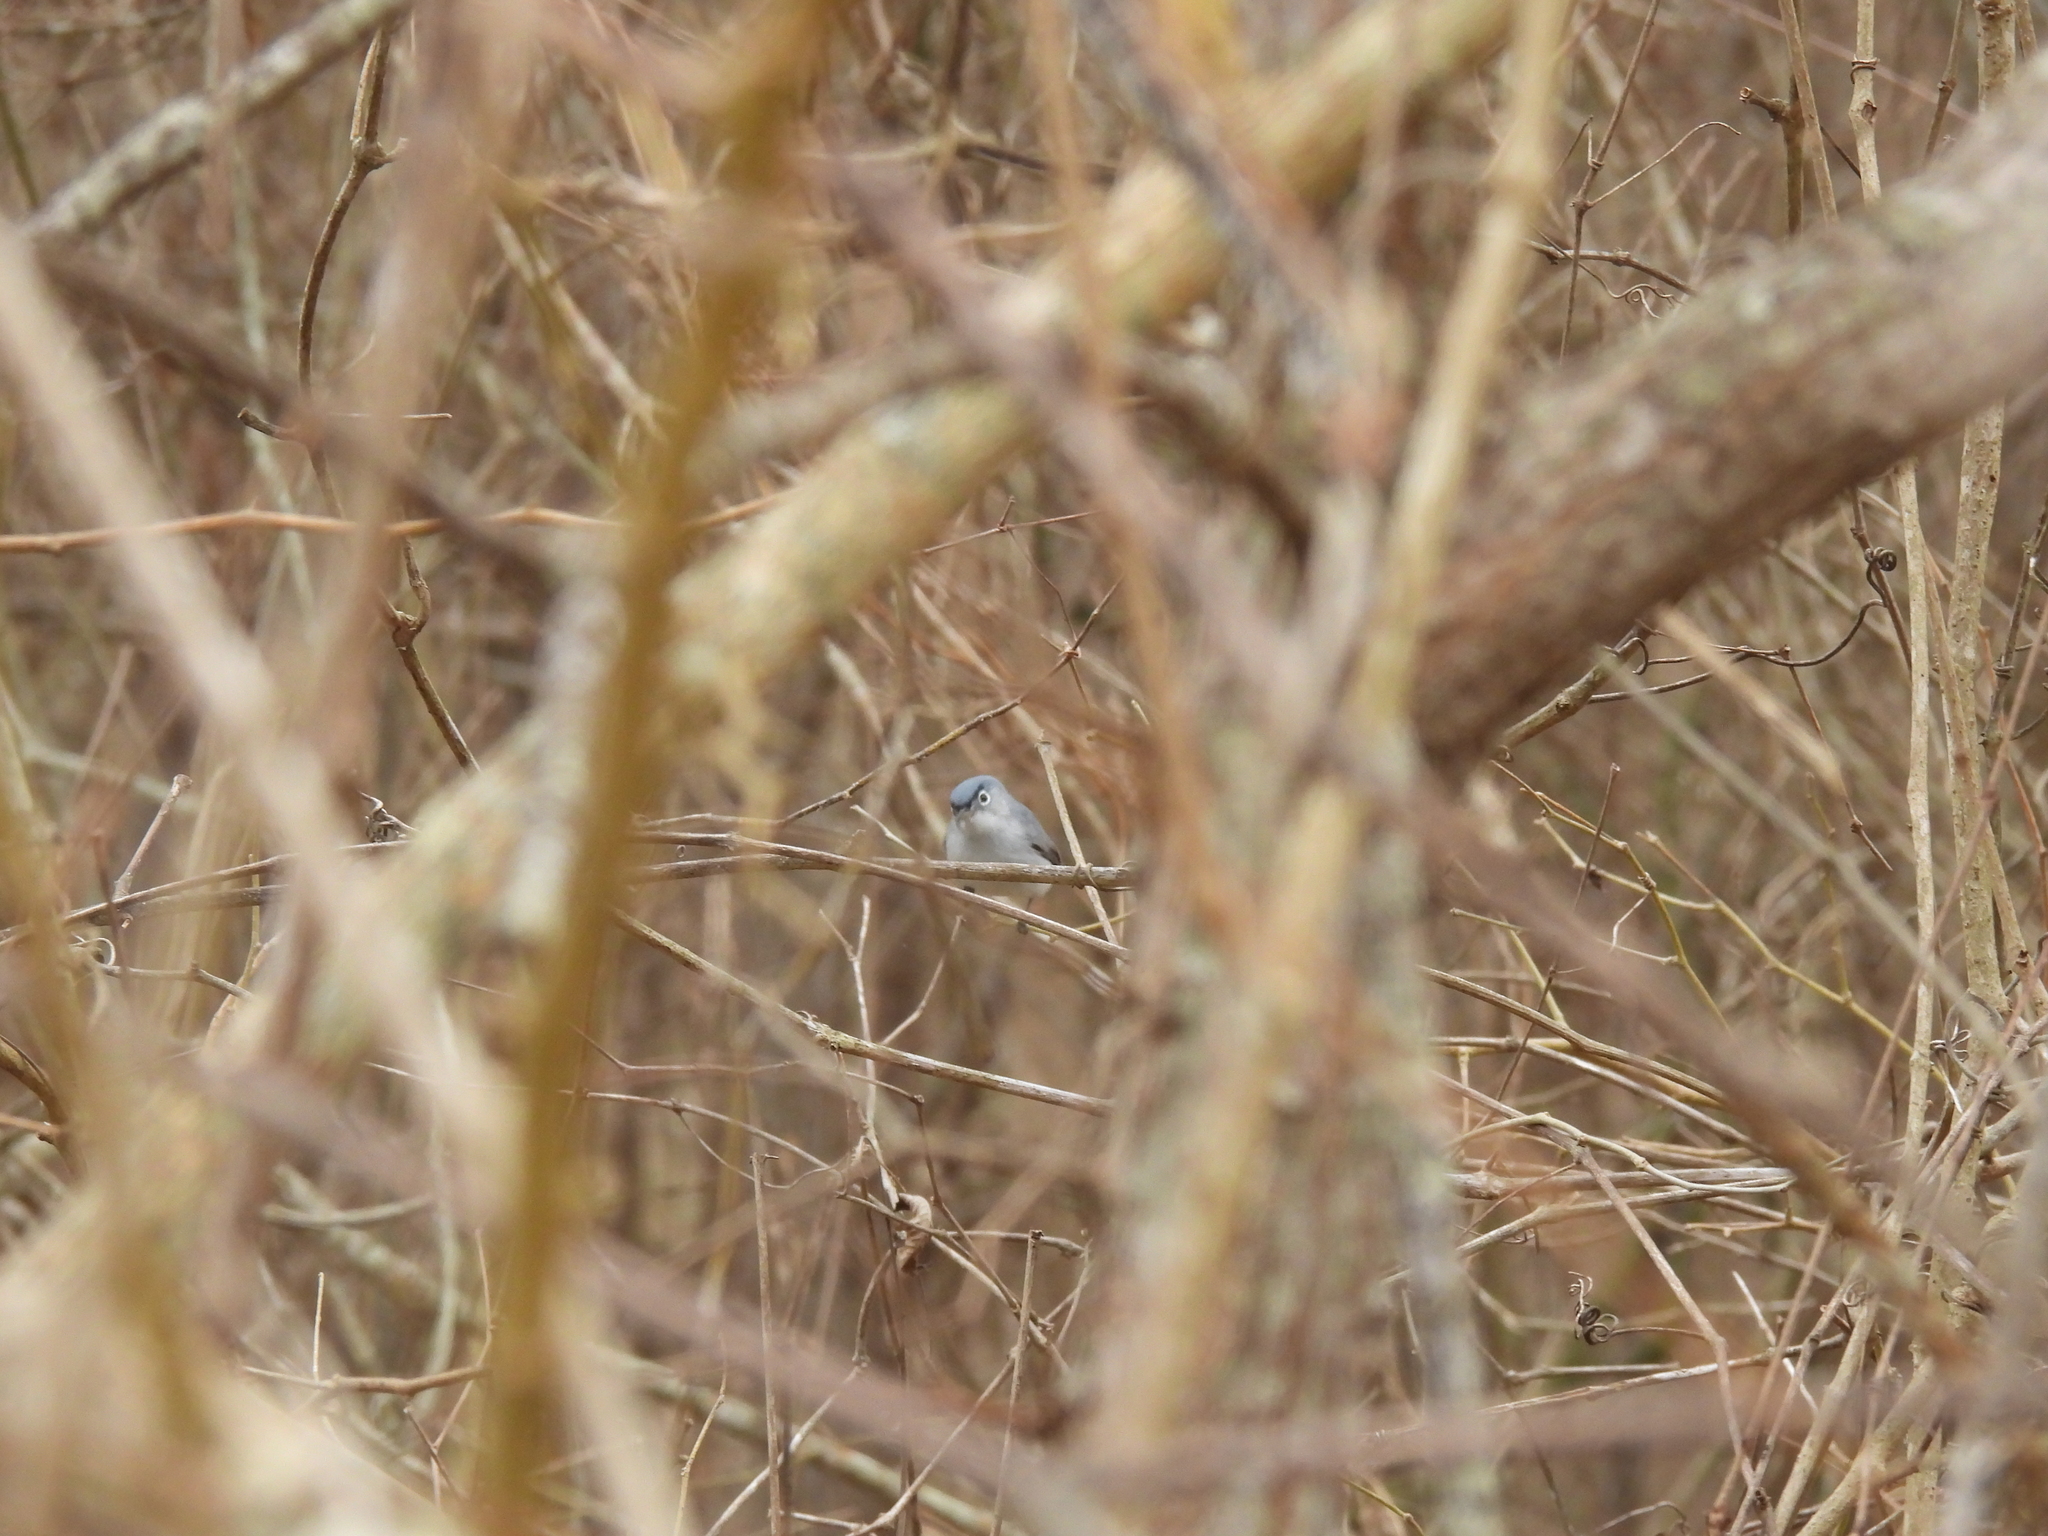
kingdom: Animalia
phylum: Chordata
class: Aves
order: Passeriformes
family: Polioptilidae
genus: Polioptila
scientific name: Polioptila caerulea
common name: Blue-gray gnatcatcher
